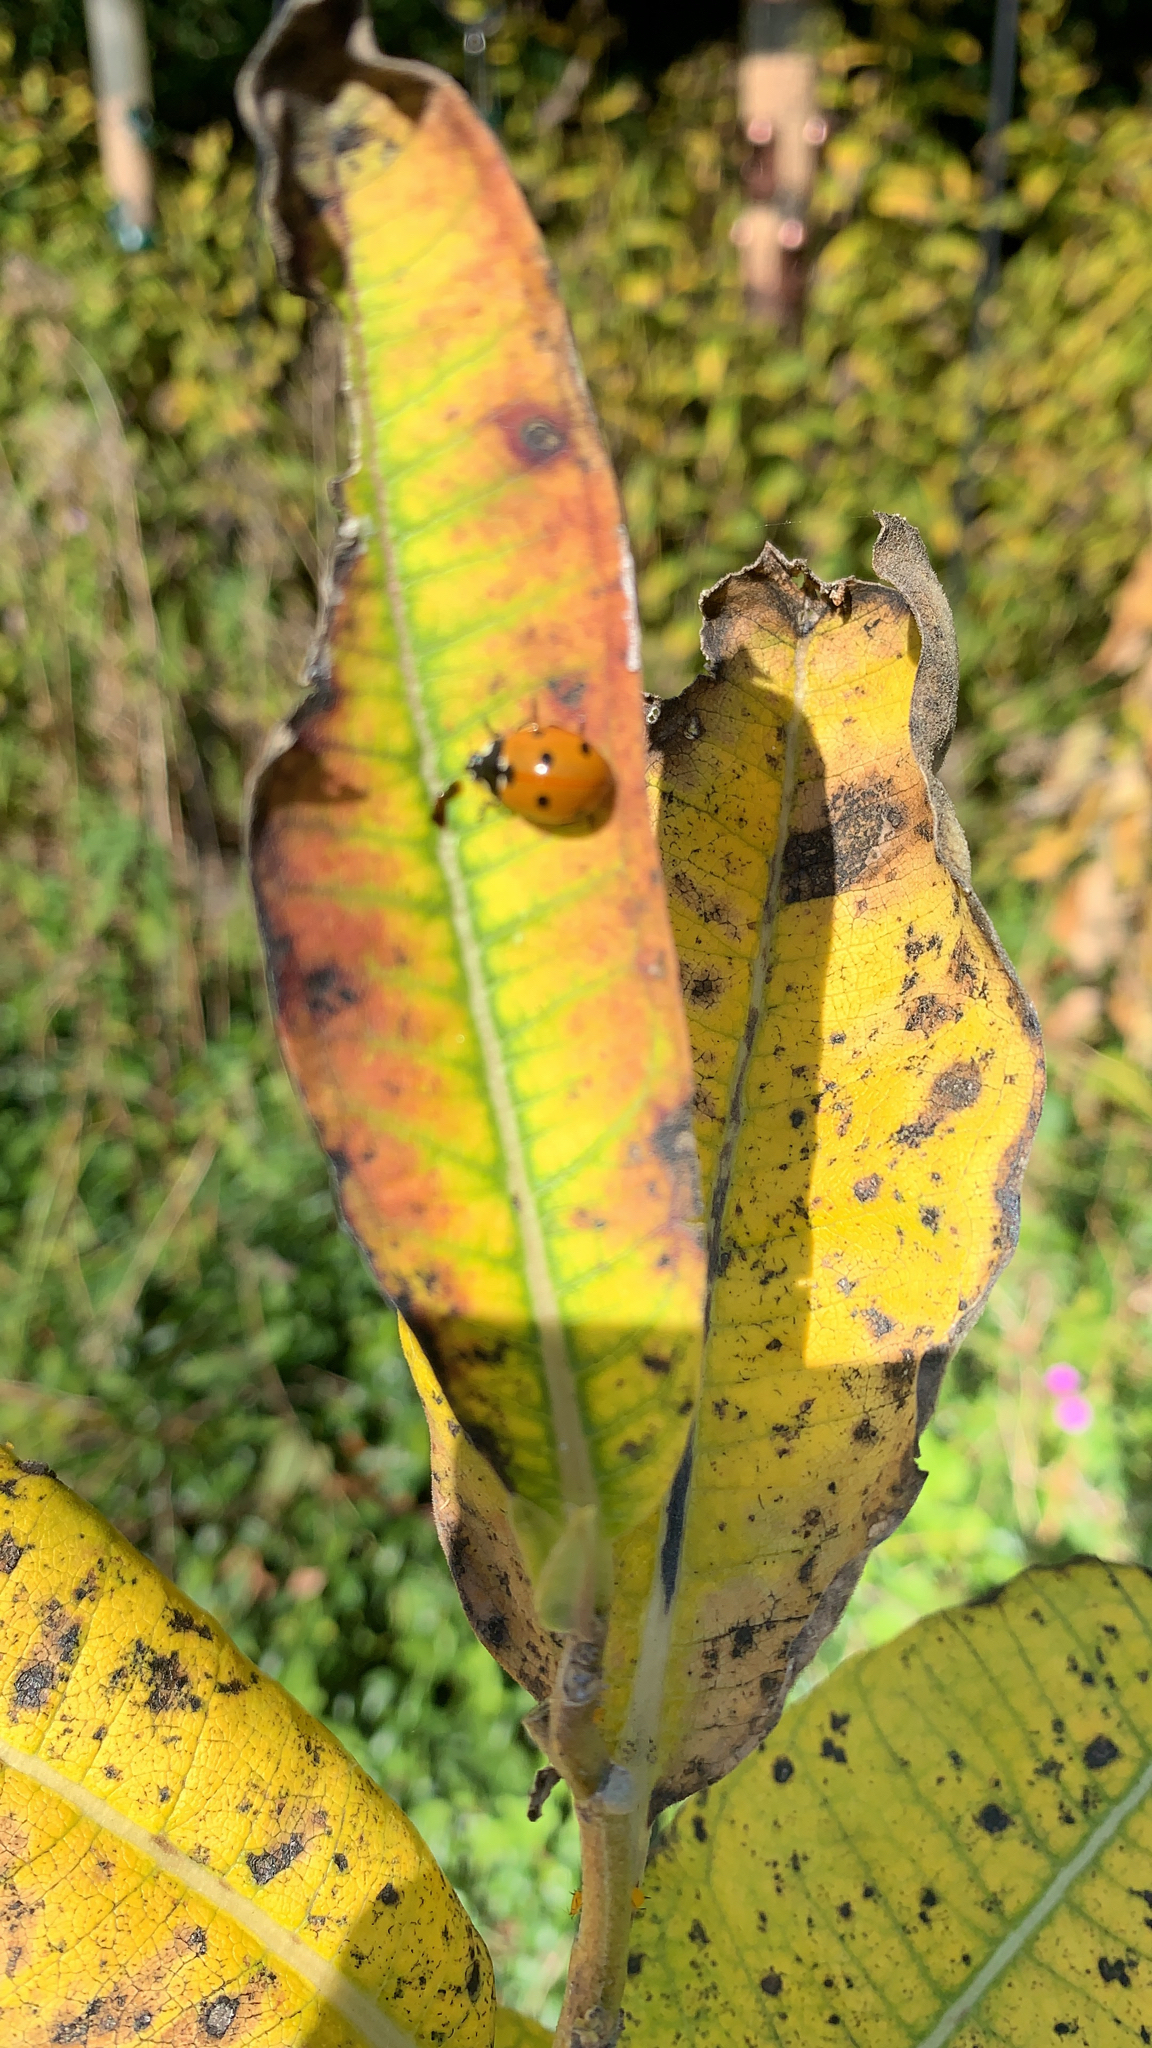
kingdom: Animalia
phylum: Arthropoda
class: Insecta
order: Coleoptera
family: Coccinellidae
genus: Coccinella
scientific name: Coccinella septempunctata
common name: Sevenspotted lady beetle
